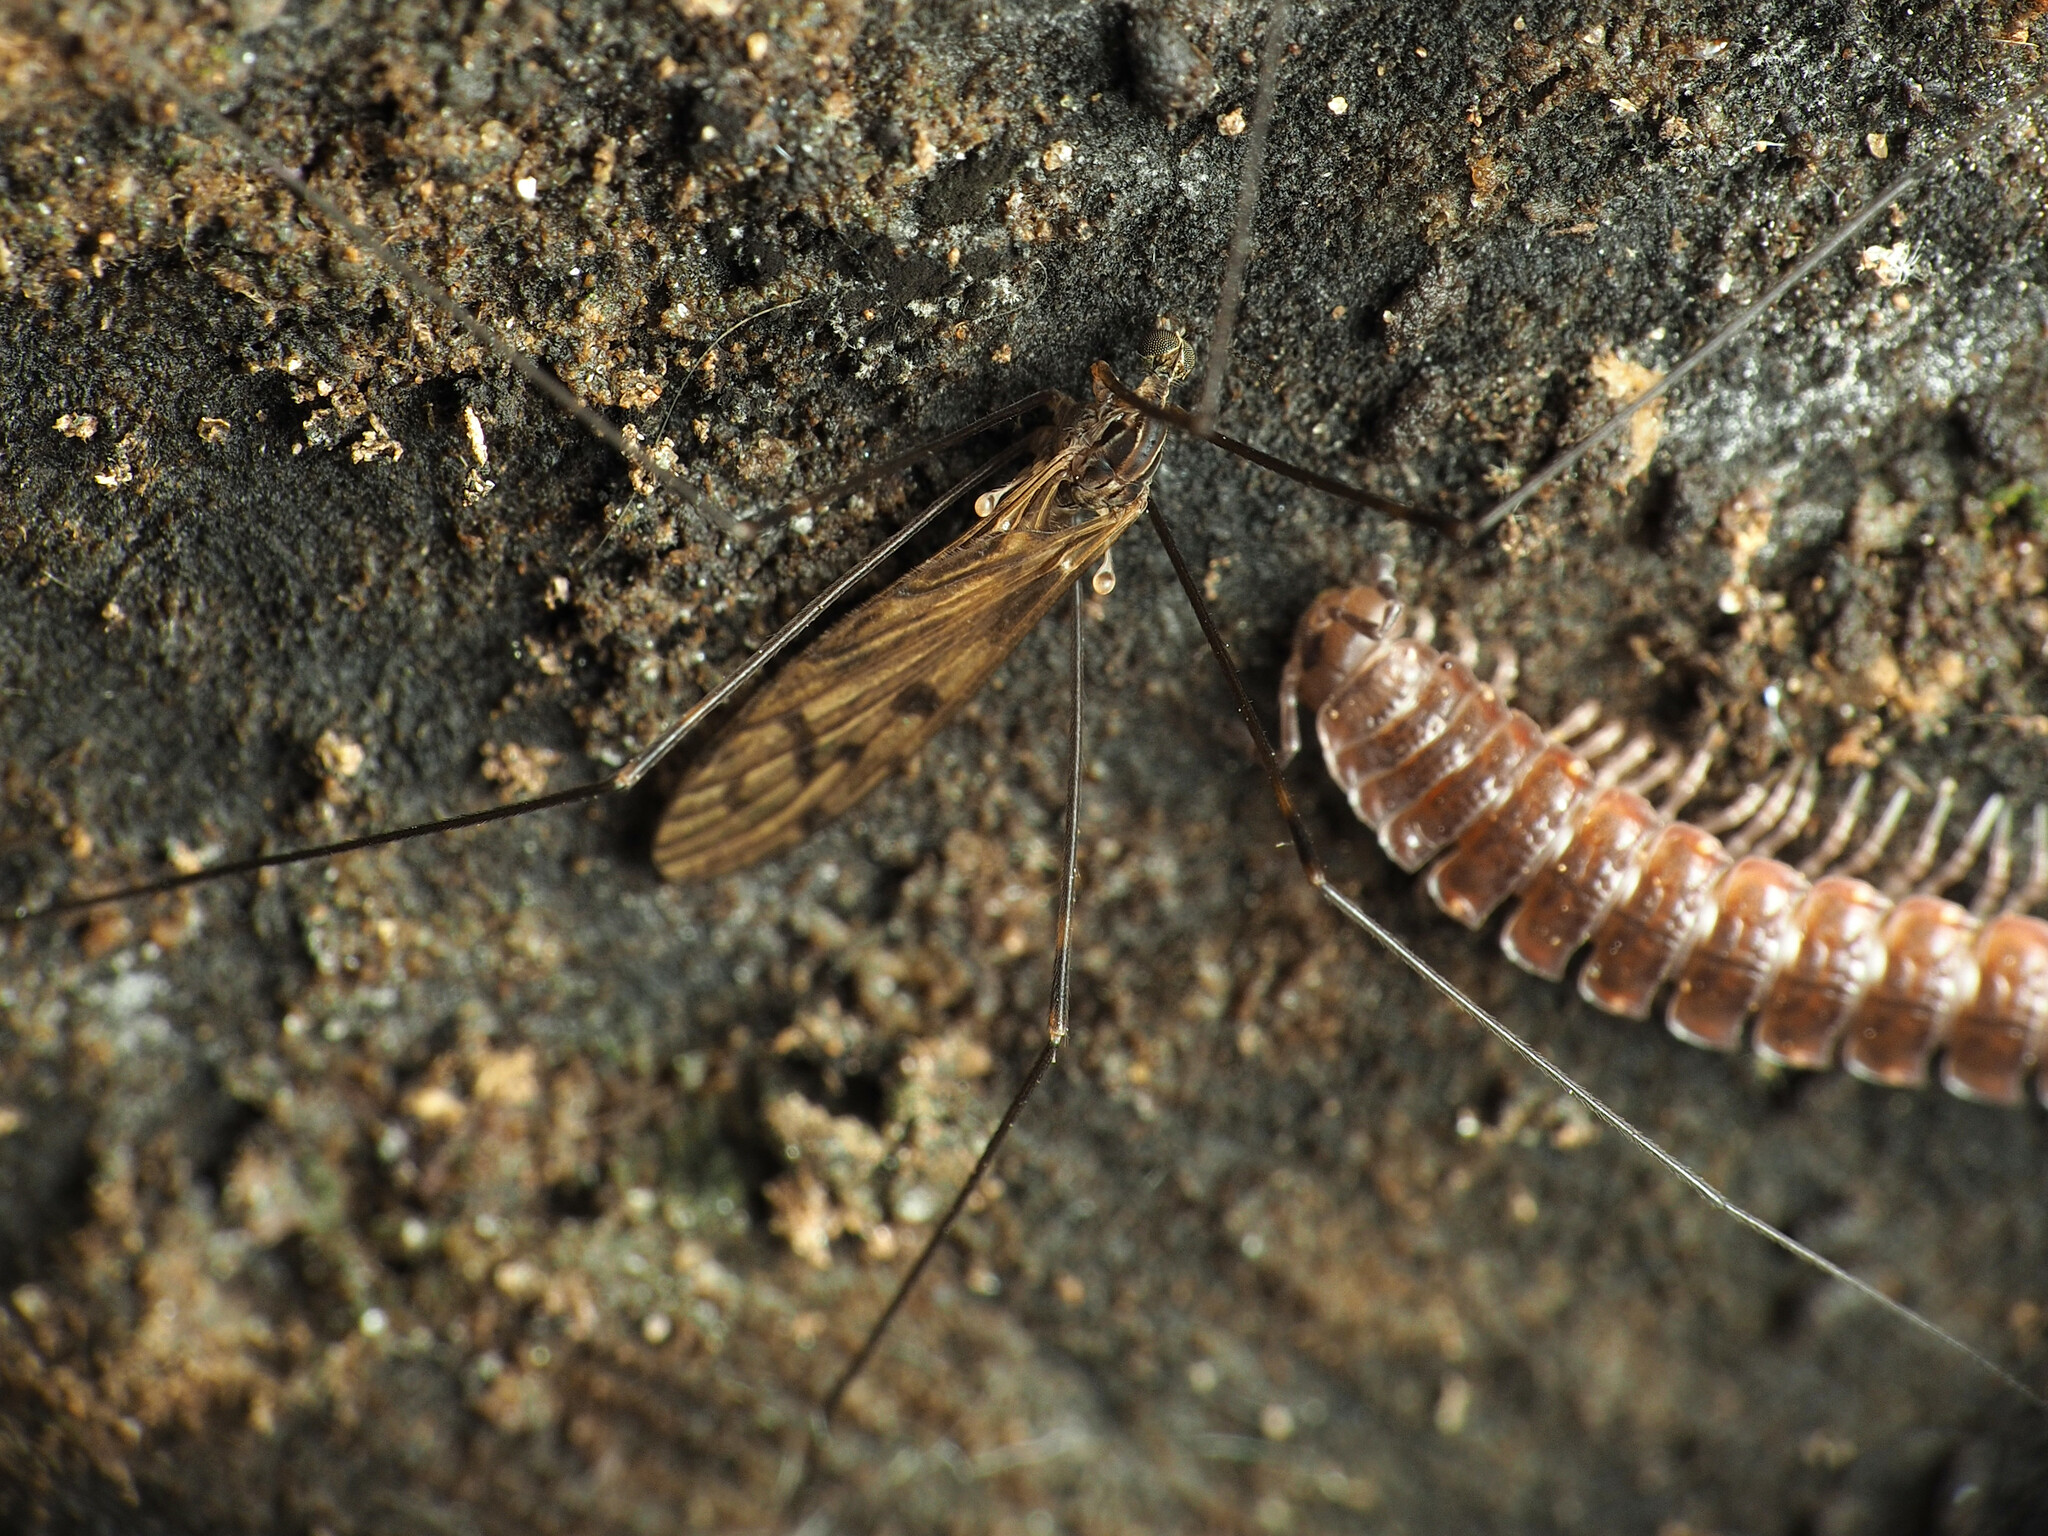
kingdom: Animalia
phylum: Arthropoda
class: Insecta
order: Diptera
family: Limoniidae
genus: Metalimnobia
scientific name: Metalimnobia novaeangliae
